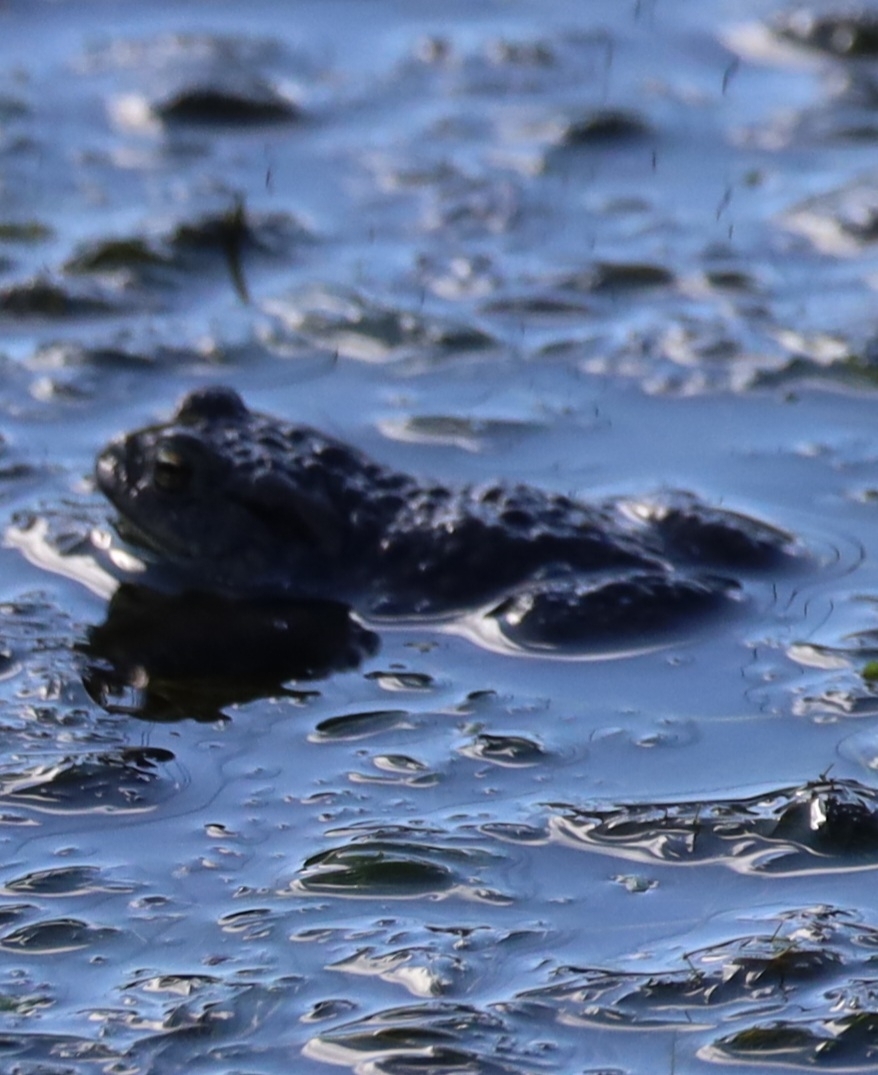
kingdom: Animalia
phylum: Chordata
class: Amphibia
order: Anura
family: Bufonidae
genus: Bufo
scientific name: Bufo bufo
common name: Common toad
